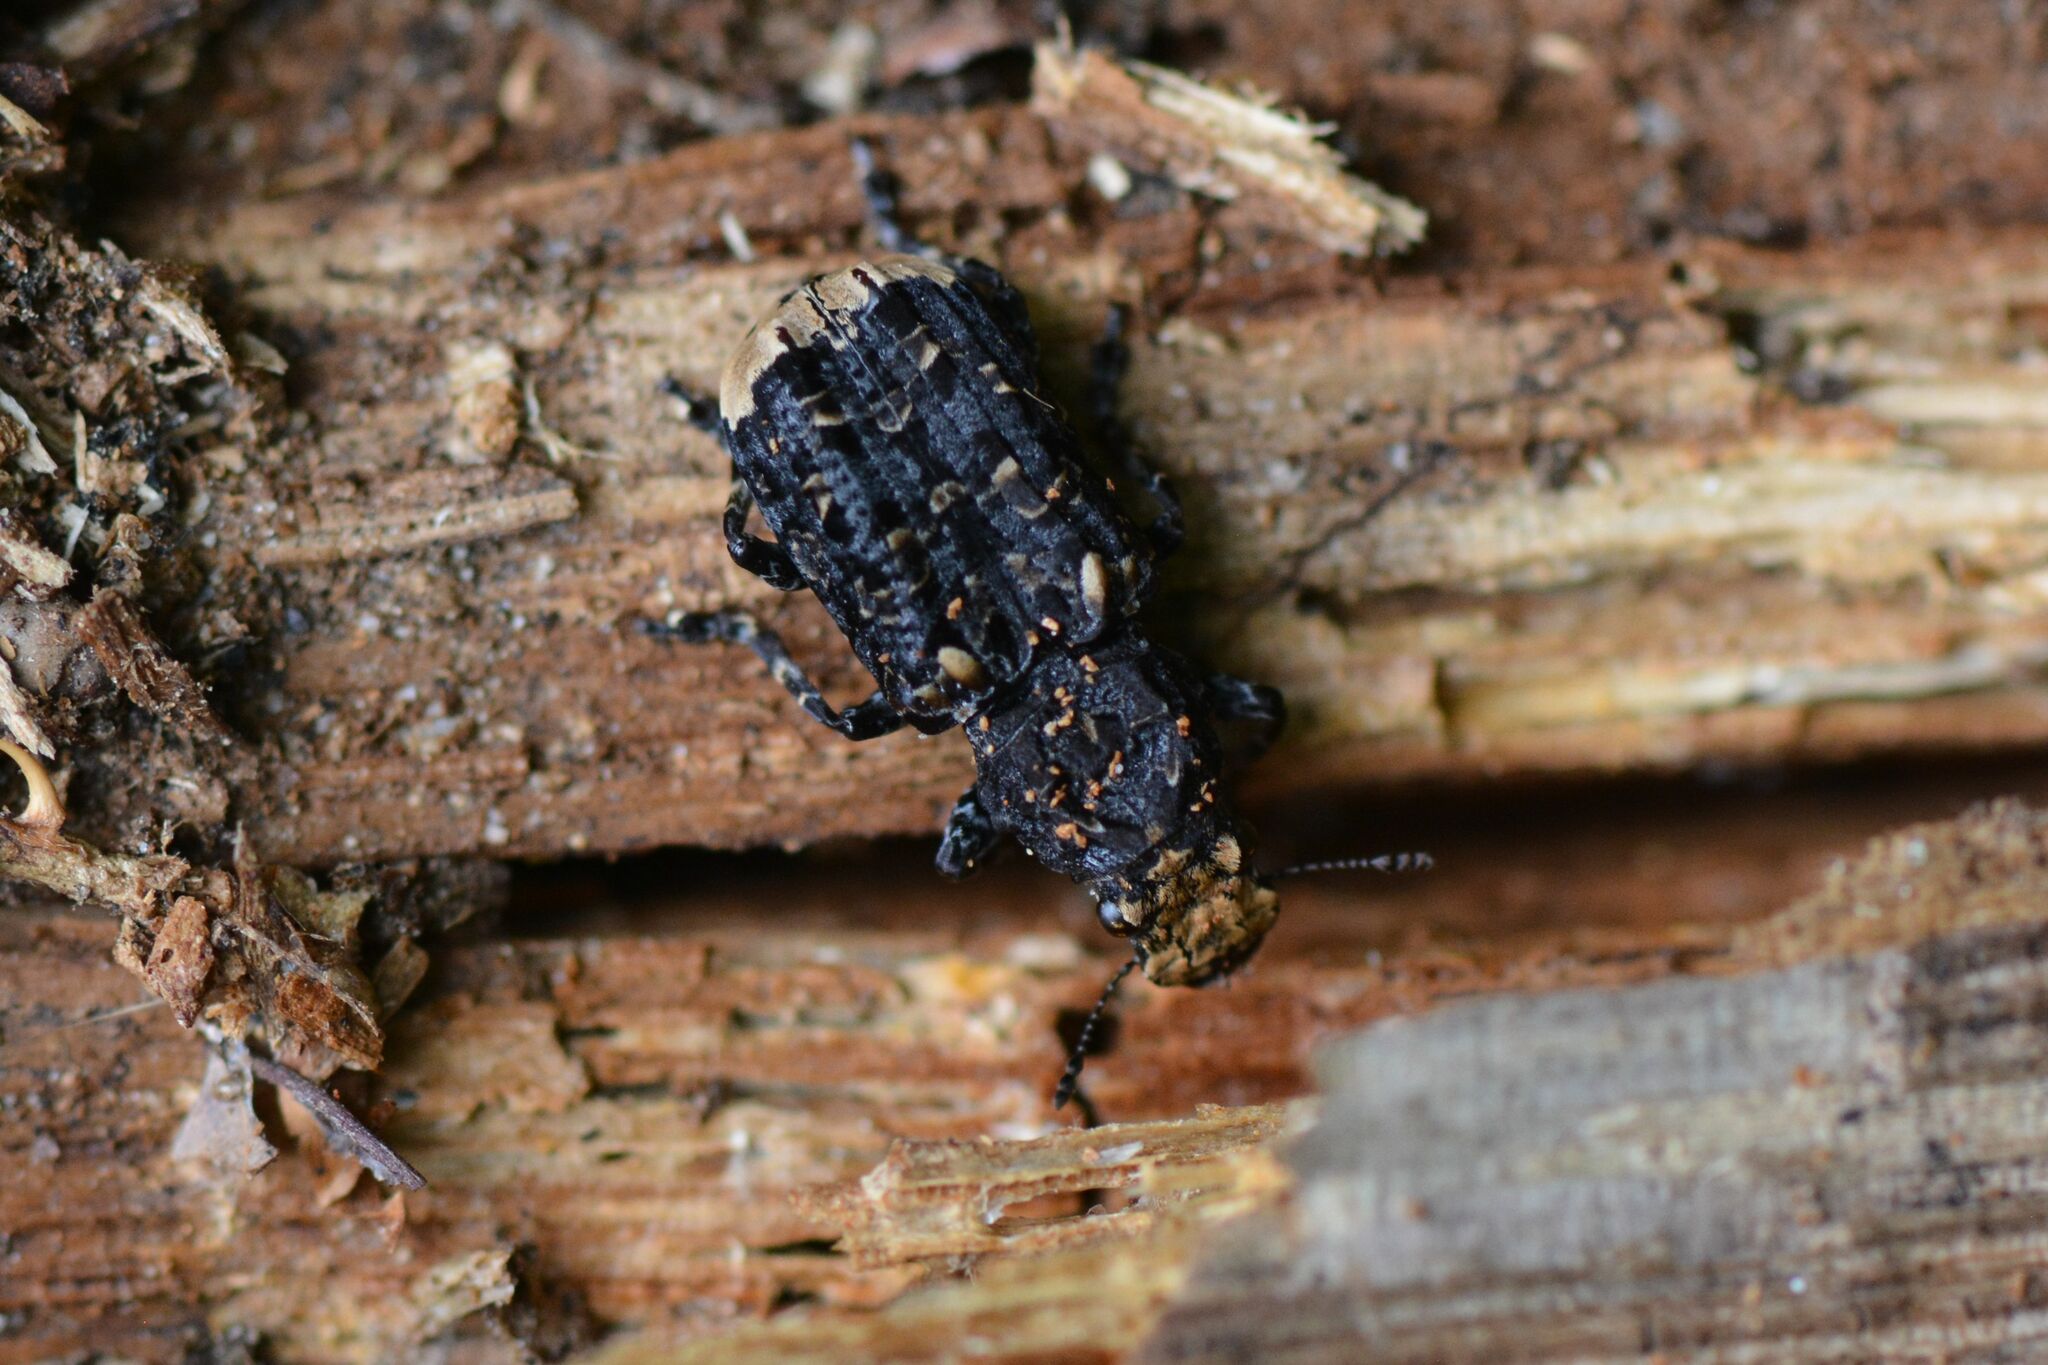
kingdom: Animalia
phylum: Arthropoda
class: Insecta
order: Coleoptera
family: Anthribidae
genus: Platyrhinus
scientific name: Platyrhinus resinosus
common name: Cramp-ball fungus weevil
